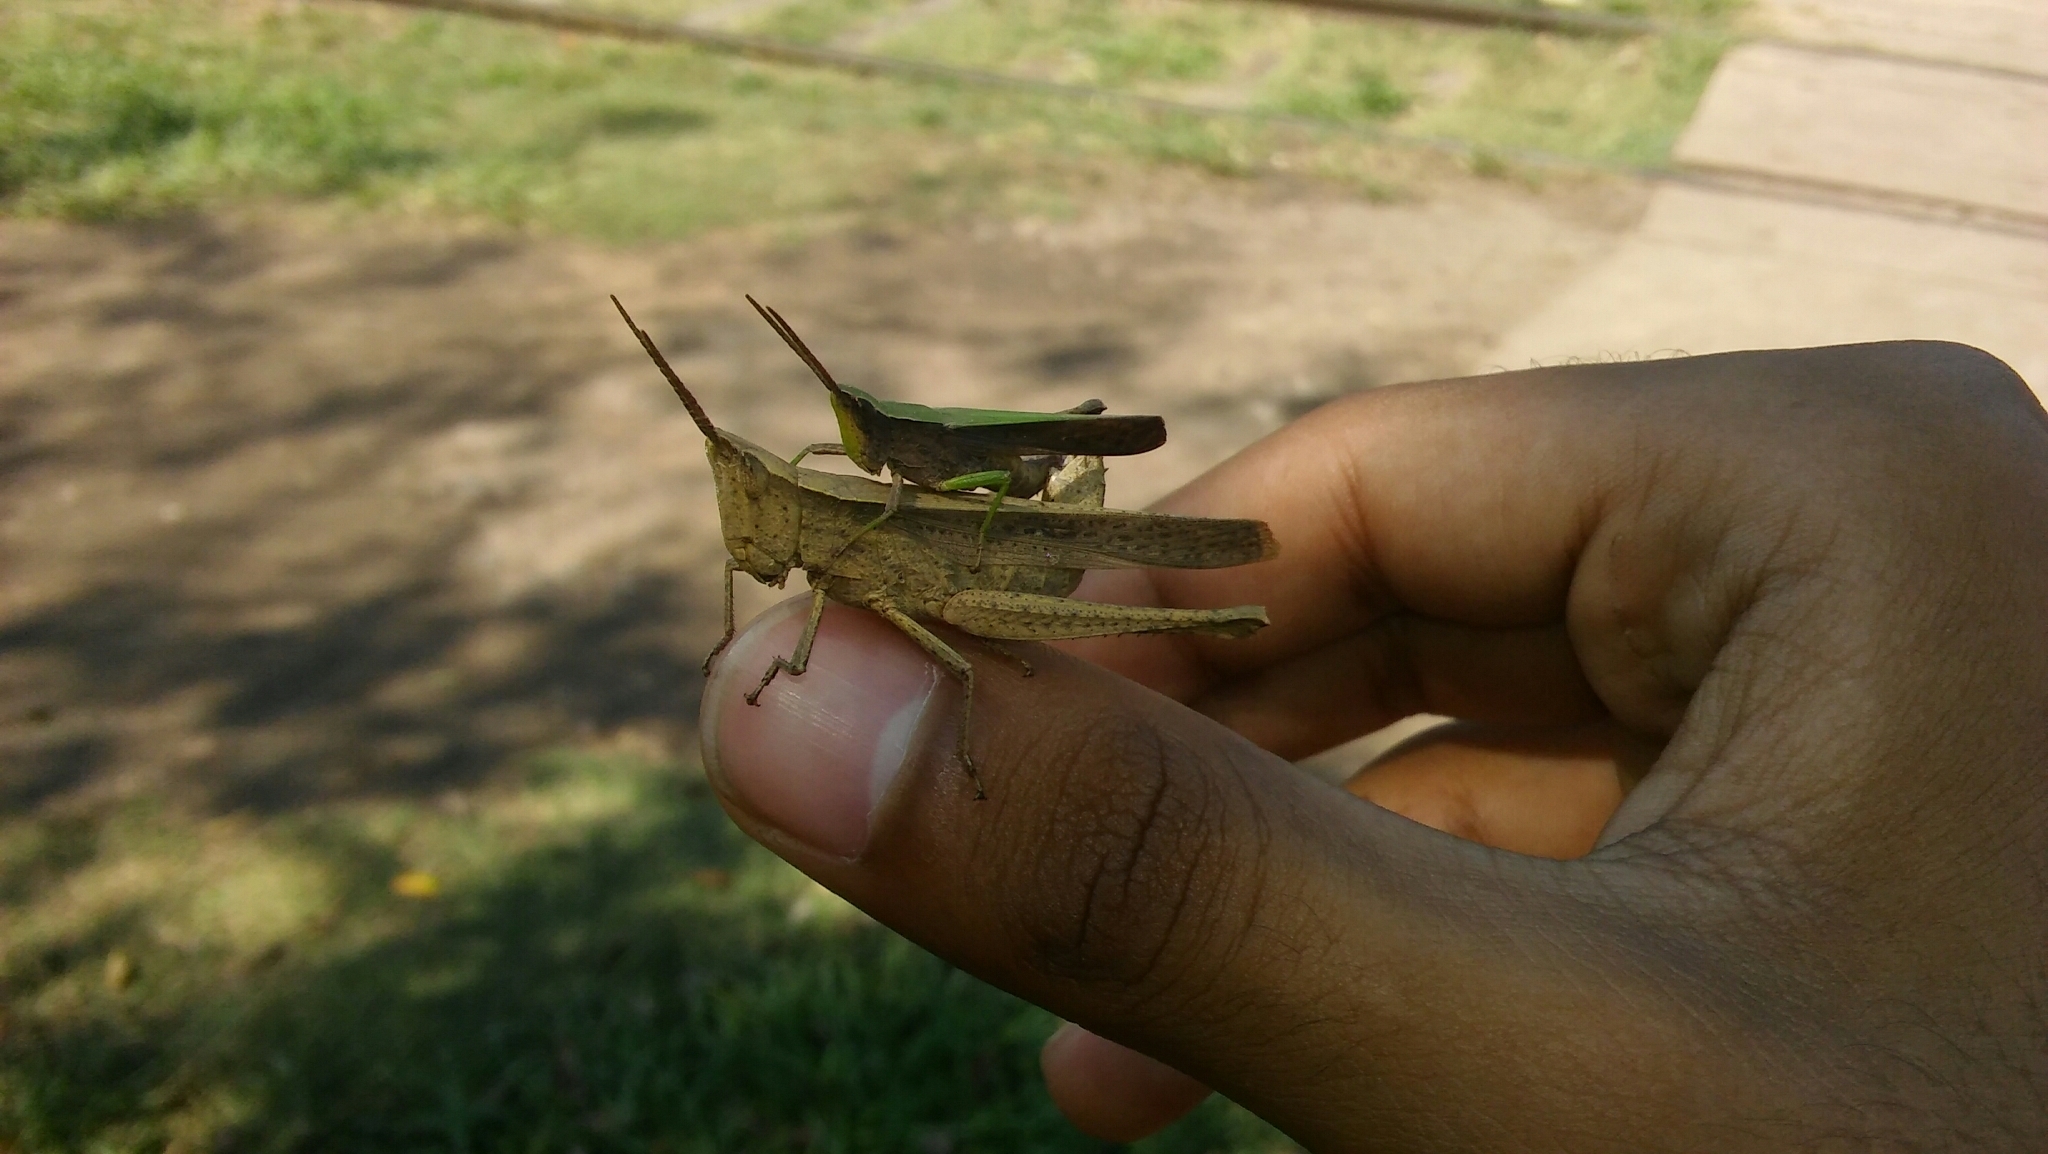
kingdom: Animalia
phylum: Arthropoda
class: Insecta
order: Orthoptera
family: Acrididae
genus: Metaleptea
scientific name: Metaleptea adspersa
